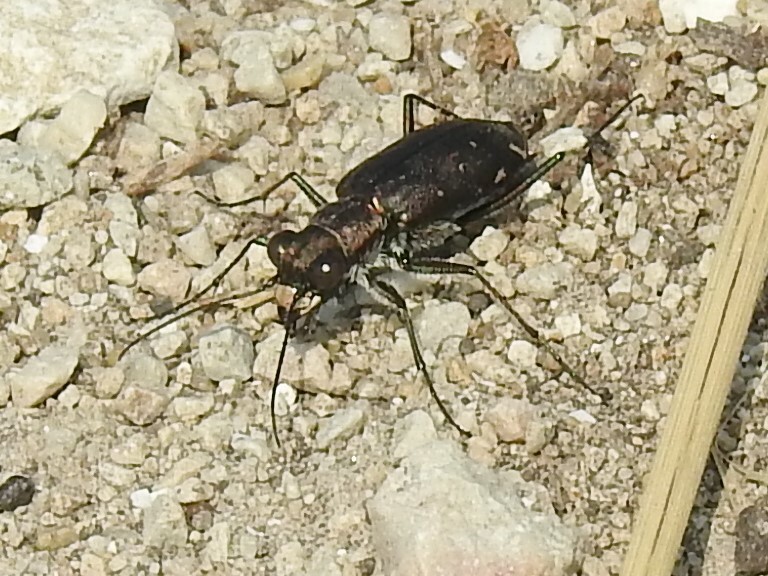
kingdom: Animalia
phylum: Arthropoda
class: Insecta
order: Coleoptera
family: Carabidae
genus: Cicindela
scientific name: Cicindela punctulata
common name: Punctured tiger beetle
